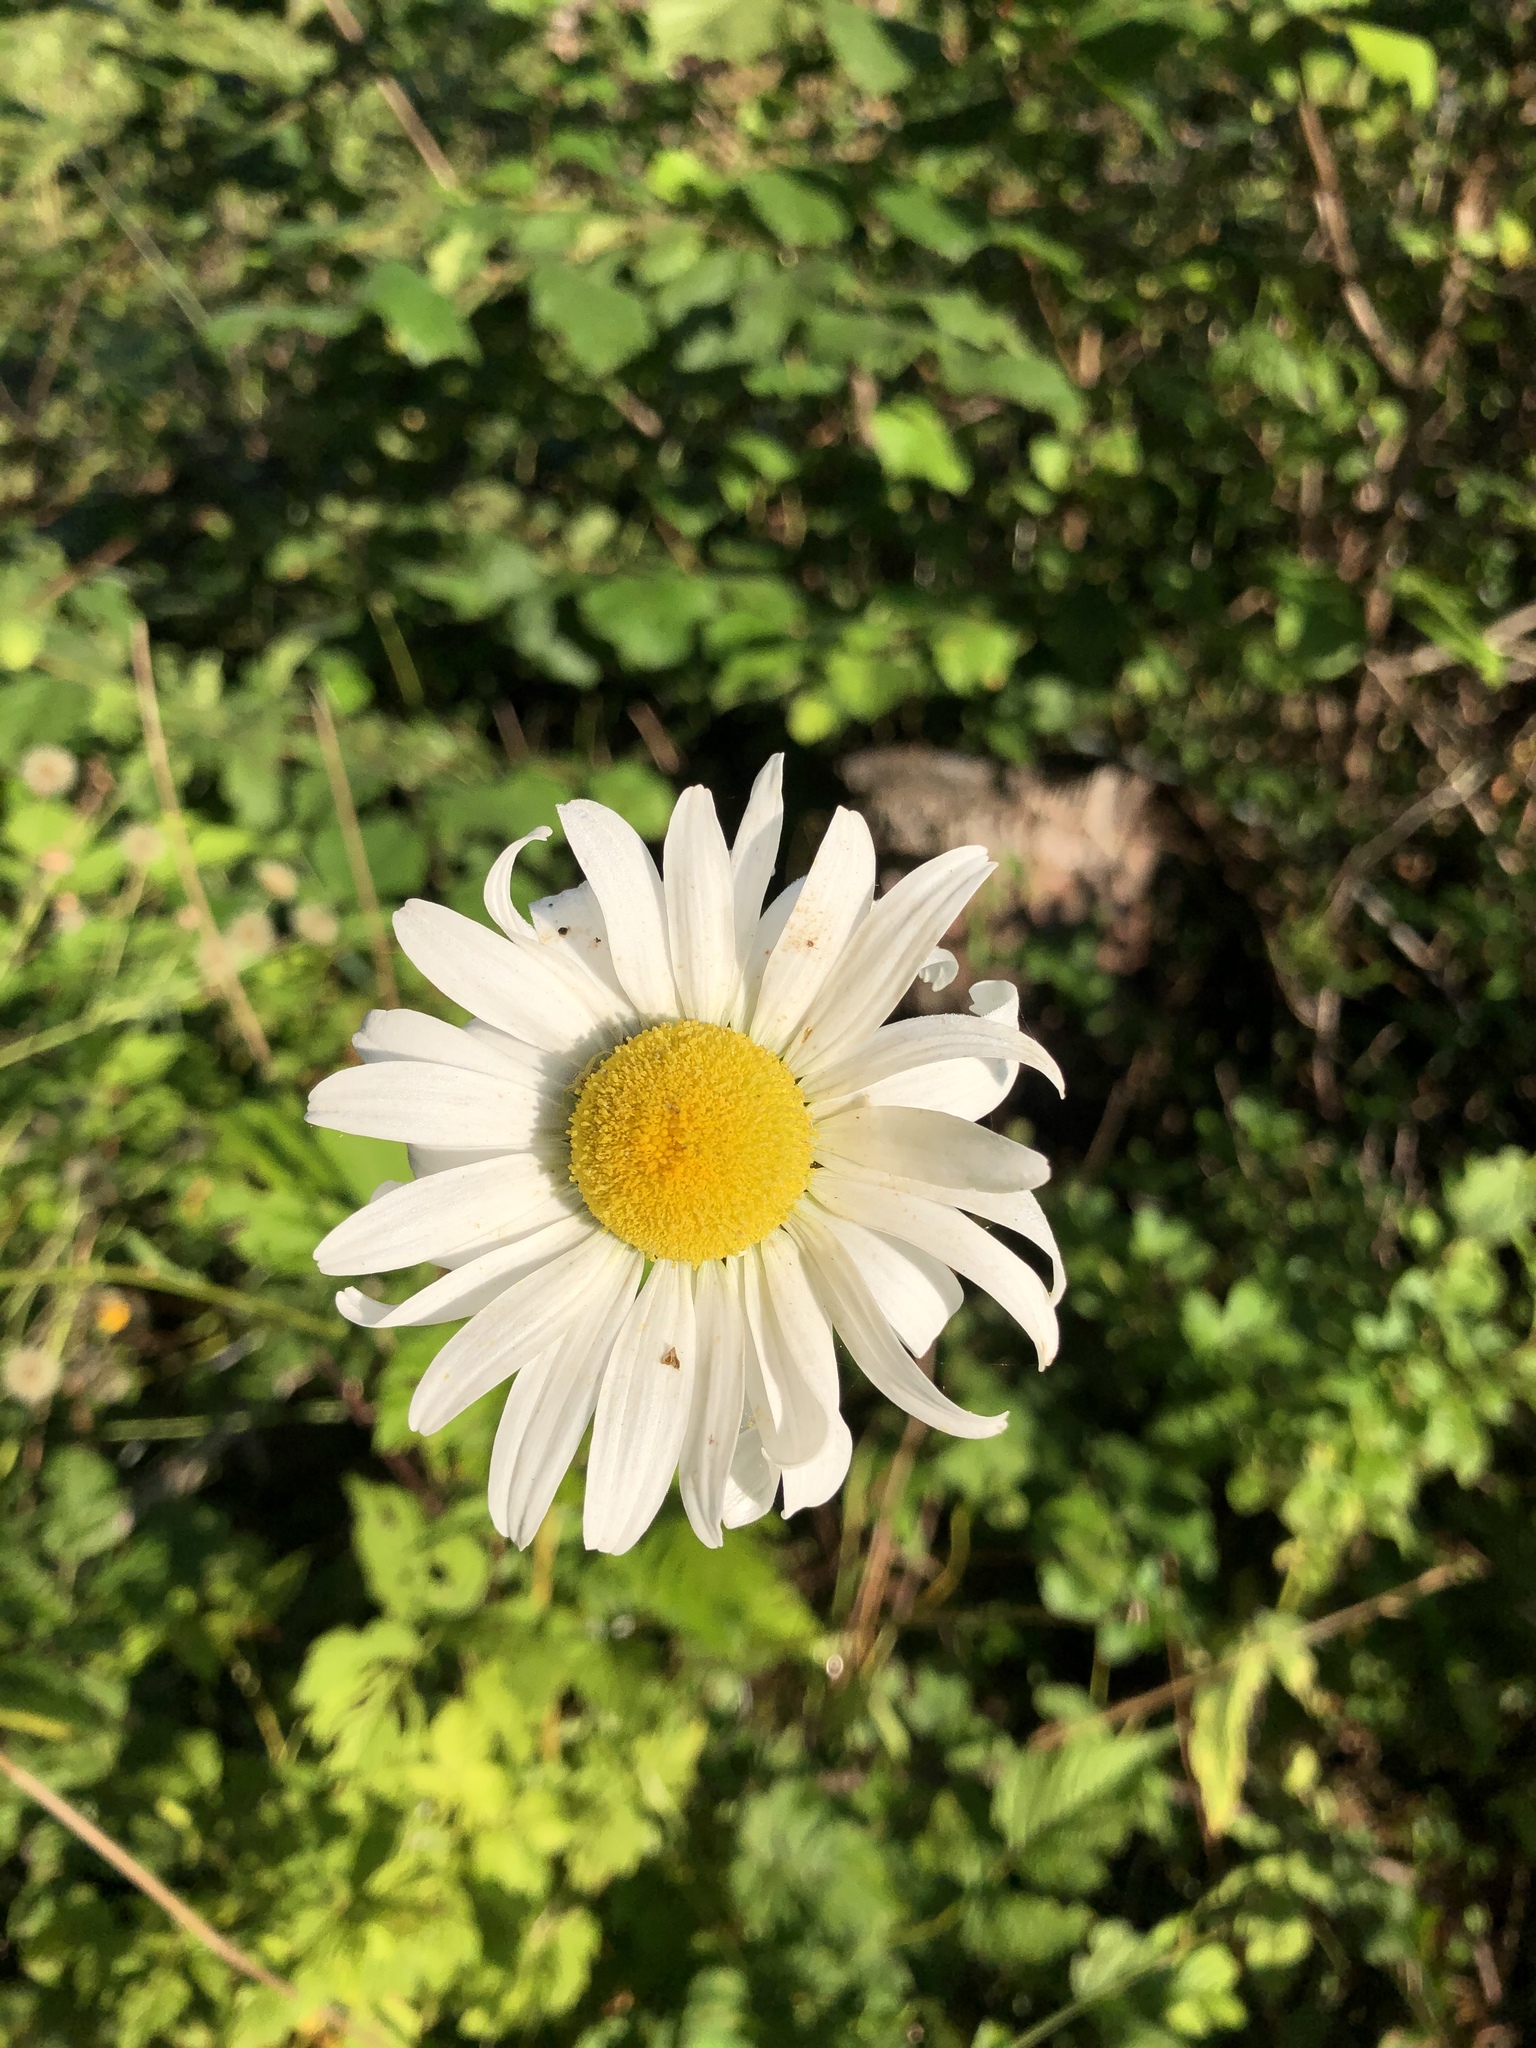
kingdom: Plantae
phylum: Tracheophyta
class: Magnoliopsida
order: Asterales
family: Asteraceae
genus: Leucanthemum
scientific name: Leucanthemum vulgare
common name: Oxeye daisy
